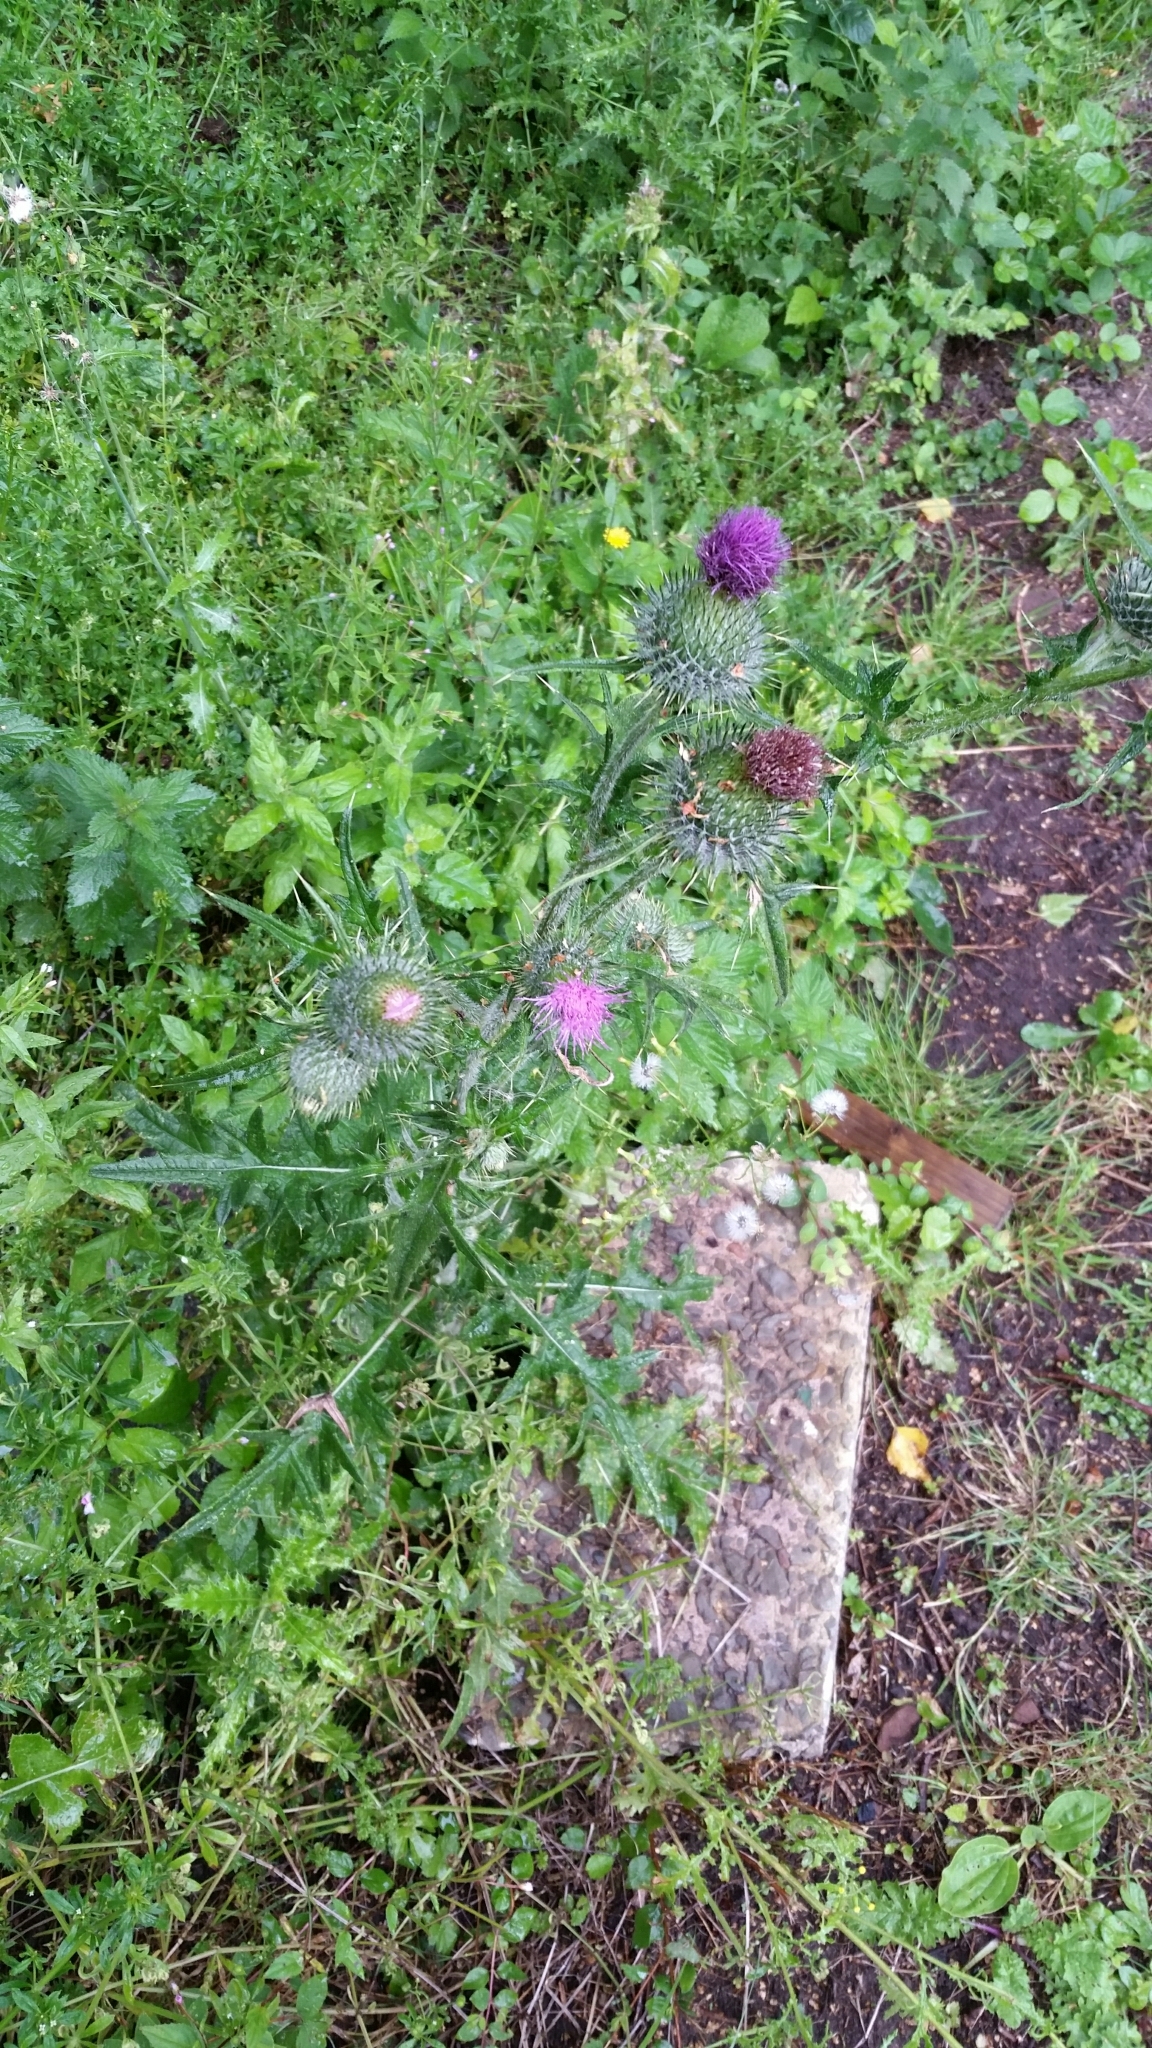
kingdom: Plantae
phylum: Tracheophyta
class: Magnoliopsida
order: Asterales
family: Asteraceae
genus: Cirsium
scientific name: Cirsium vulgare
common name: Bull thistle
